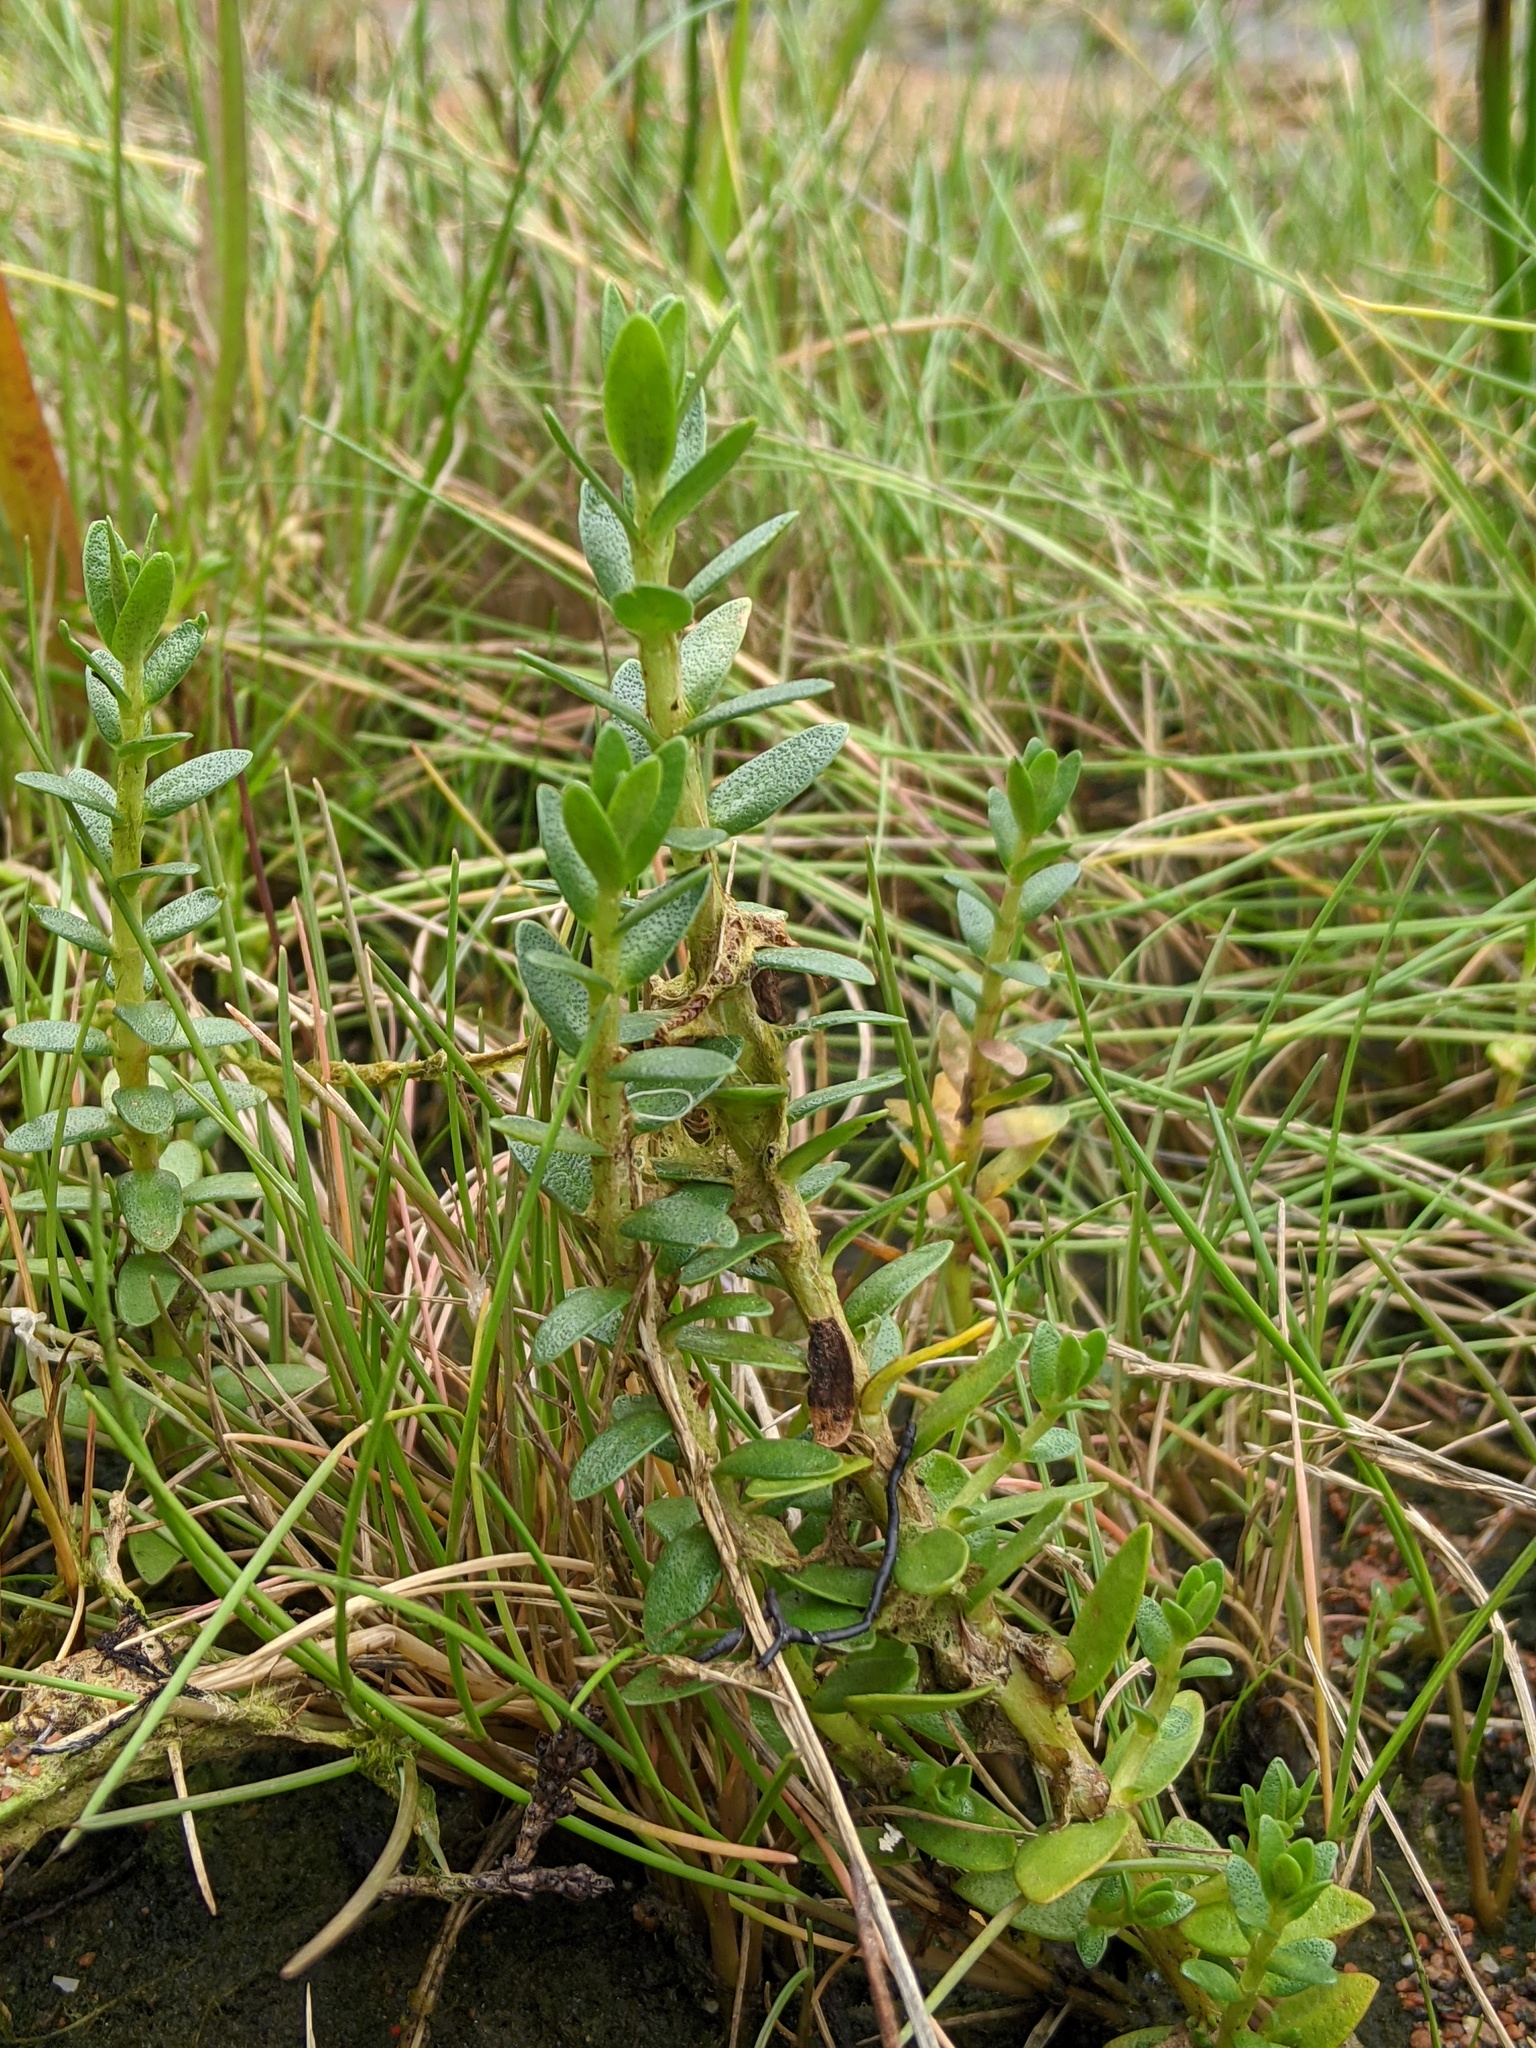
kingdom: Plantae
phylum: Tracheophyta
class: Magnoliopsida
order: Ericales
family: Primulaceae
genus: Lysimachia
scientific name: Lysimachia maritima
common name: Sea milkwort
